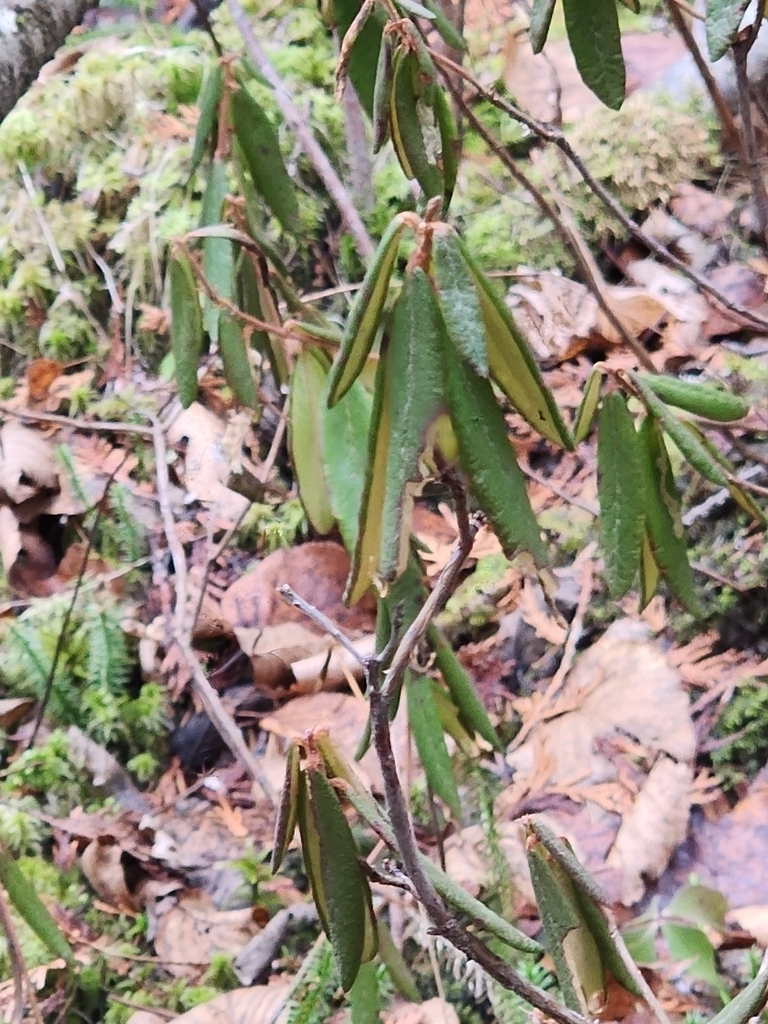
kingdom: Animalia
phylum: Arthropoda
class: Insecta
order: Lepidoptera
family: Gracillariidae
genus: Phyllonorycter
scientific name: Phyllonorycter ledella
